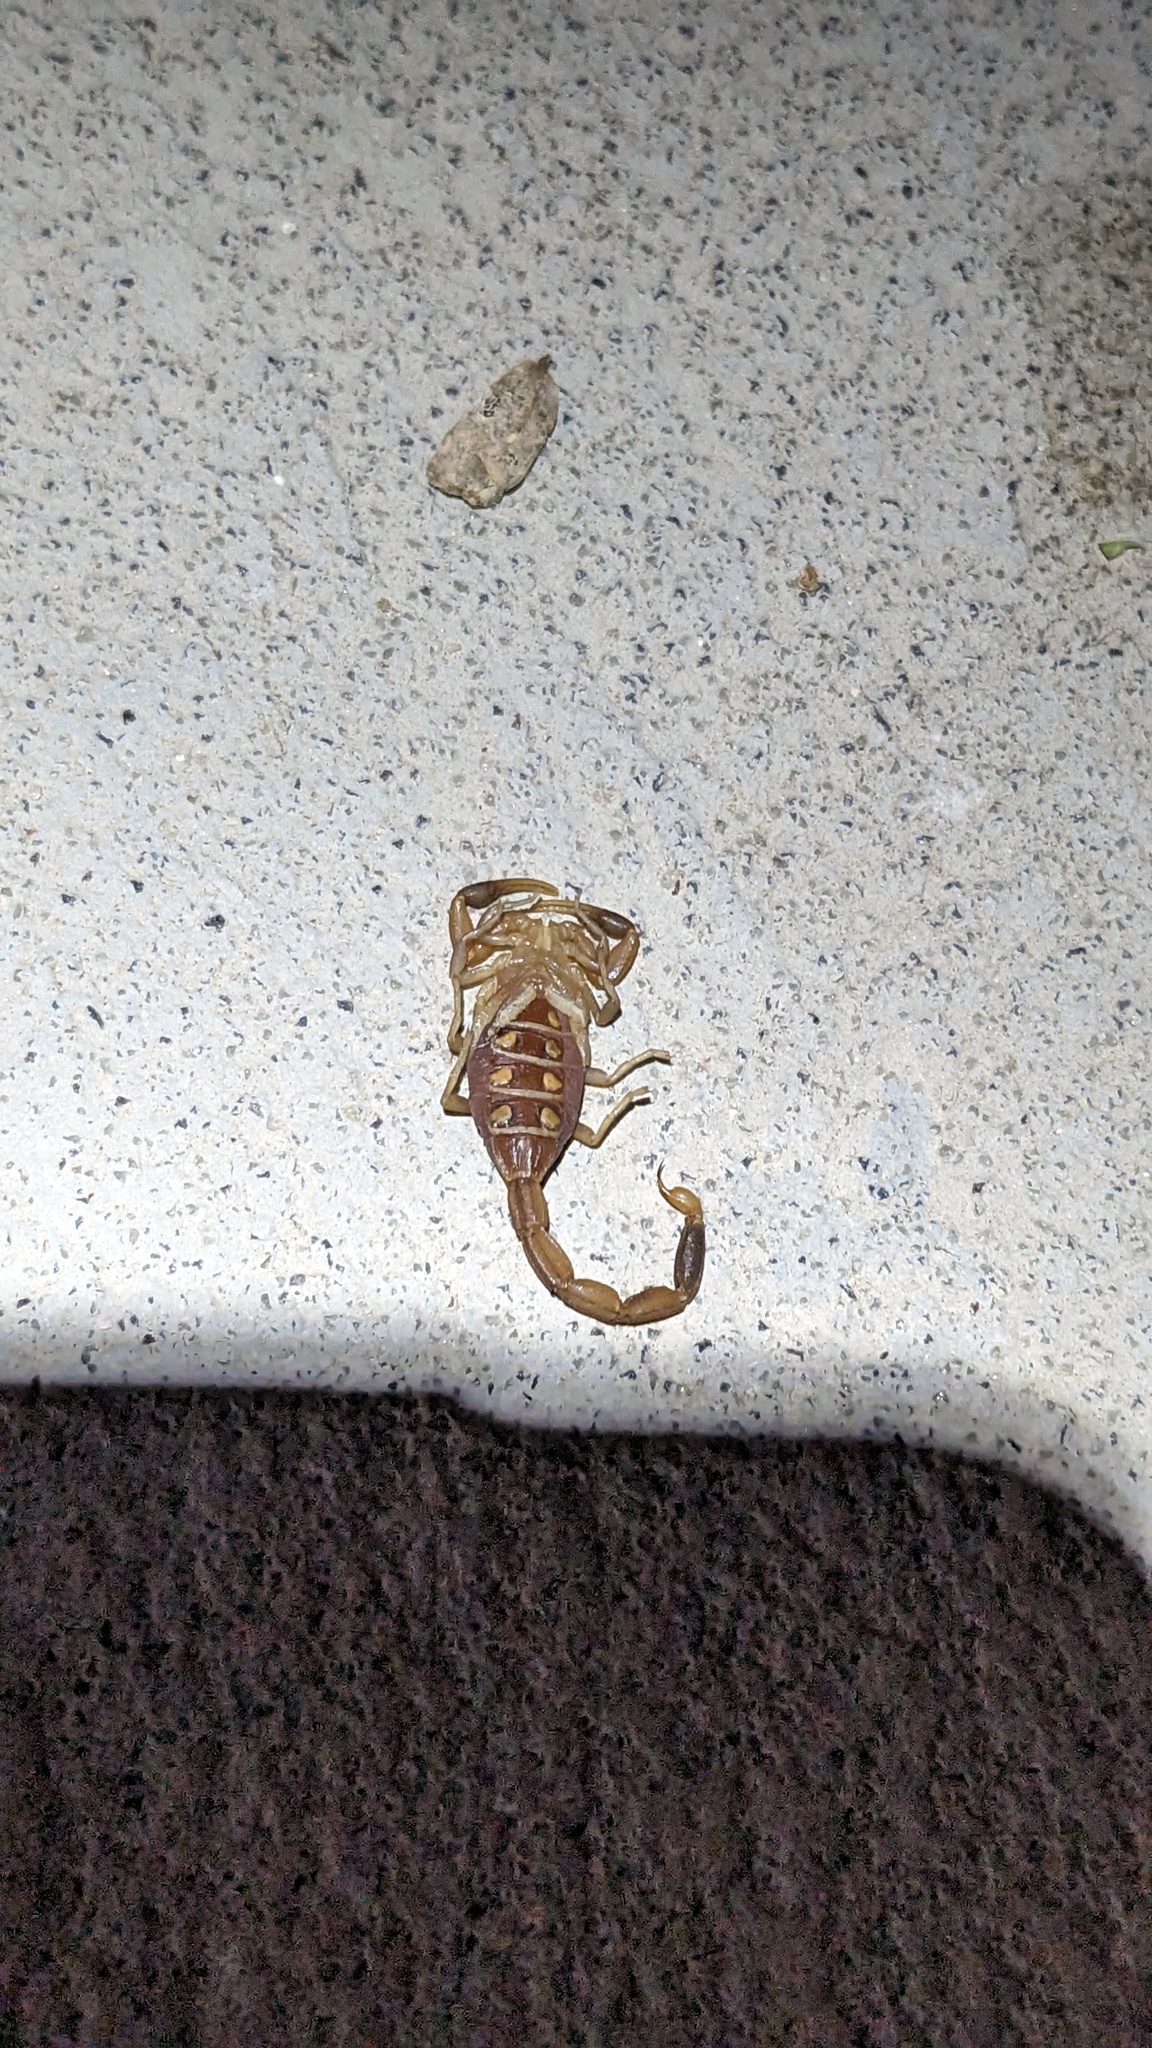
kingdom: Animalia
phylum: Arthropoda
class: Arachnida
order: Scorpiones
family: Buthidae
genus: Centruroides
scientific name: Centruroides vittatus
